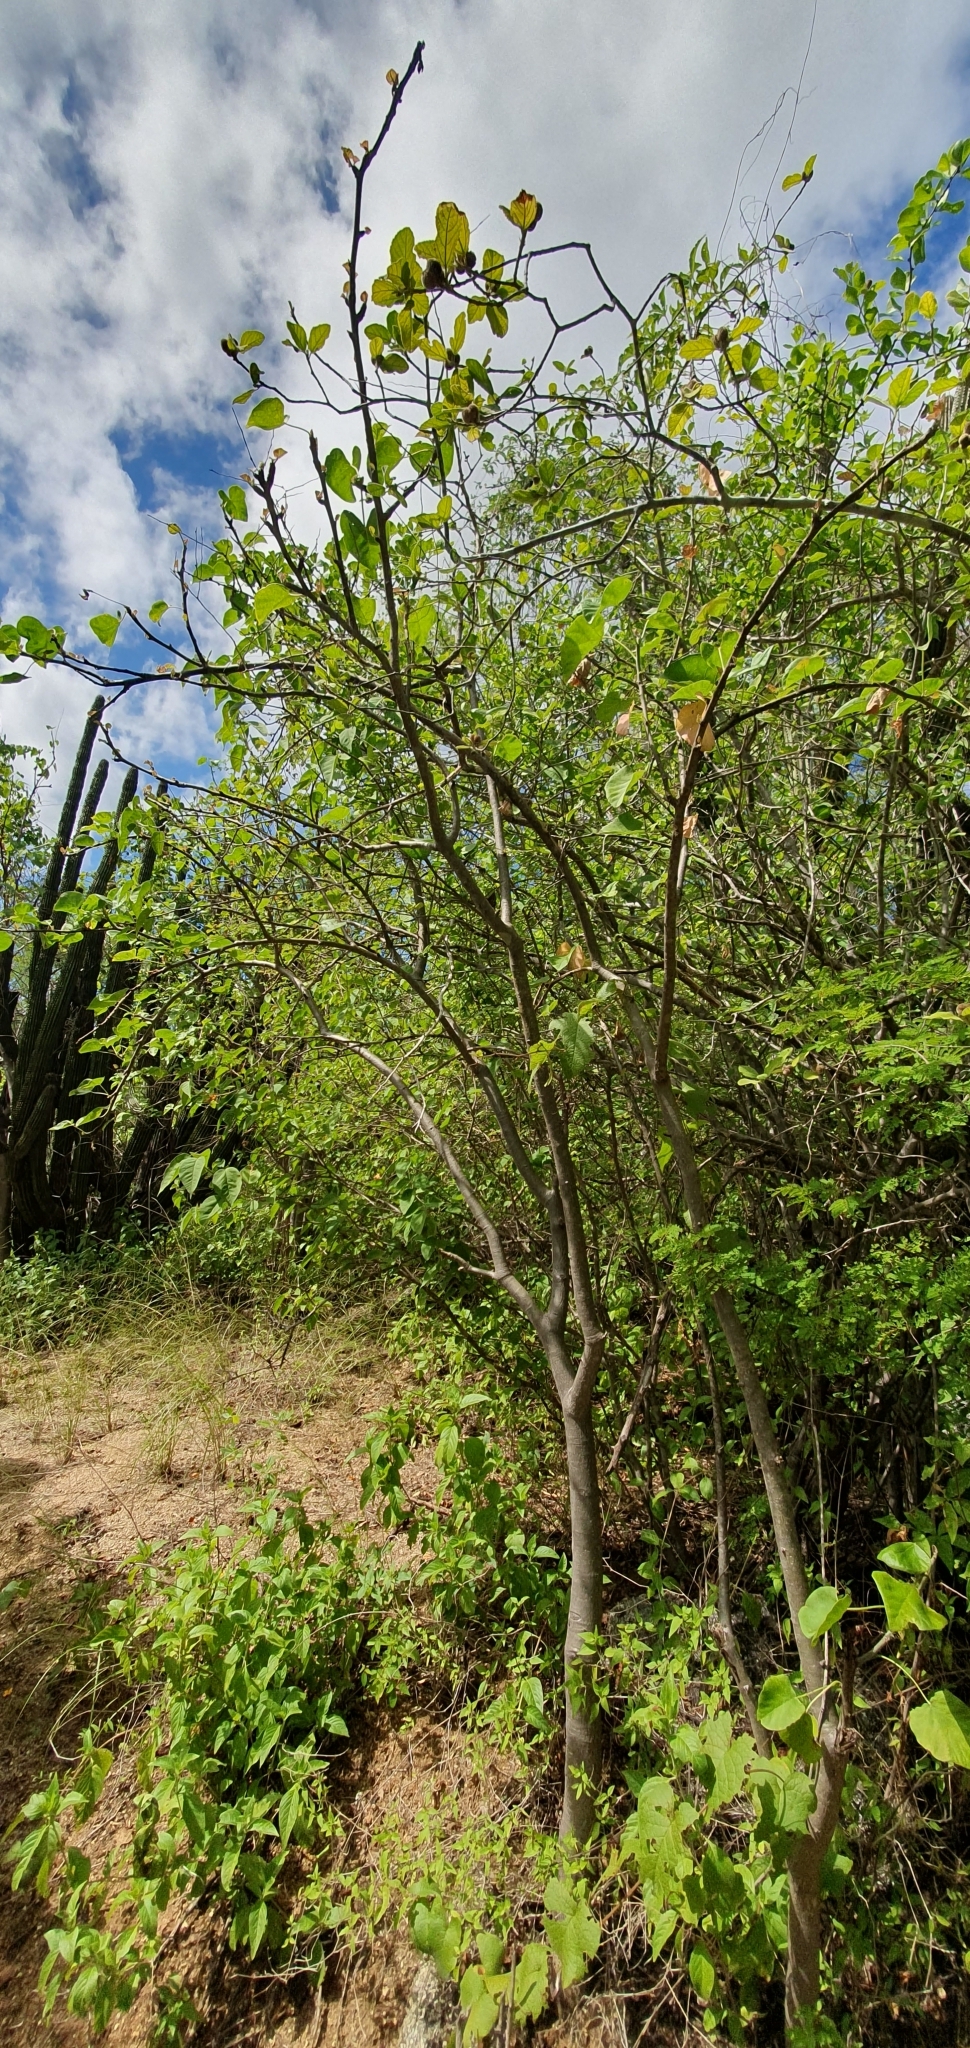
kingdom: Plantae
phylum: Tracheophyta
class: Magnoliopsida
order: Malpighiales
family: Euphorbiaceae
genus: Bernardia
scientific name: Bernardia viridis
